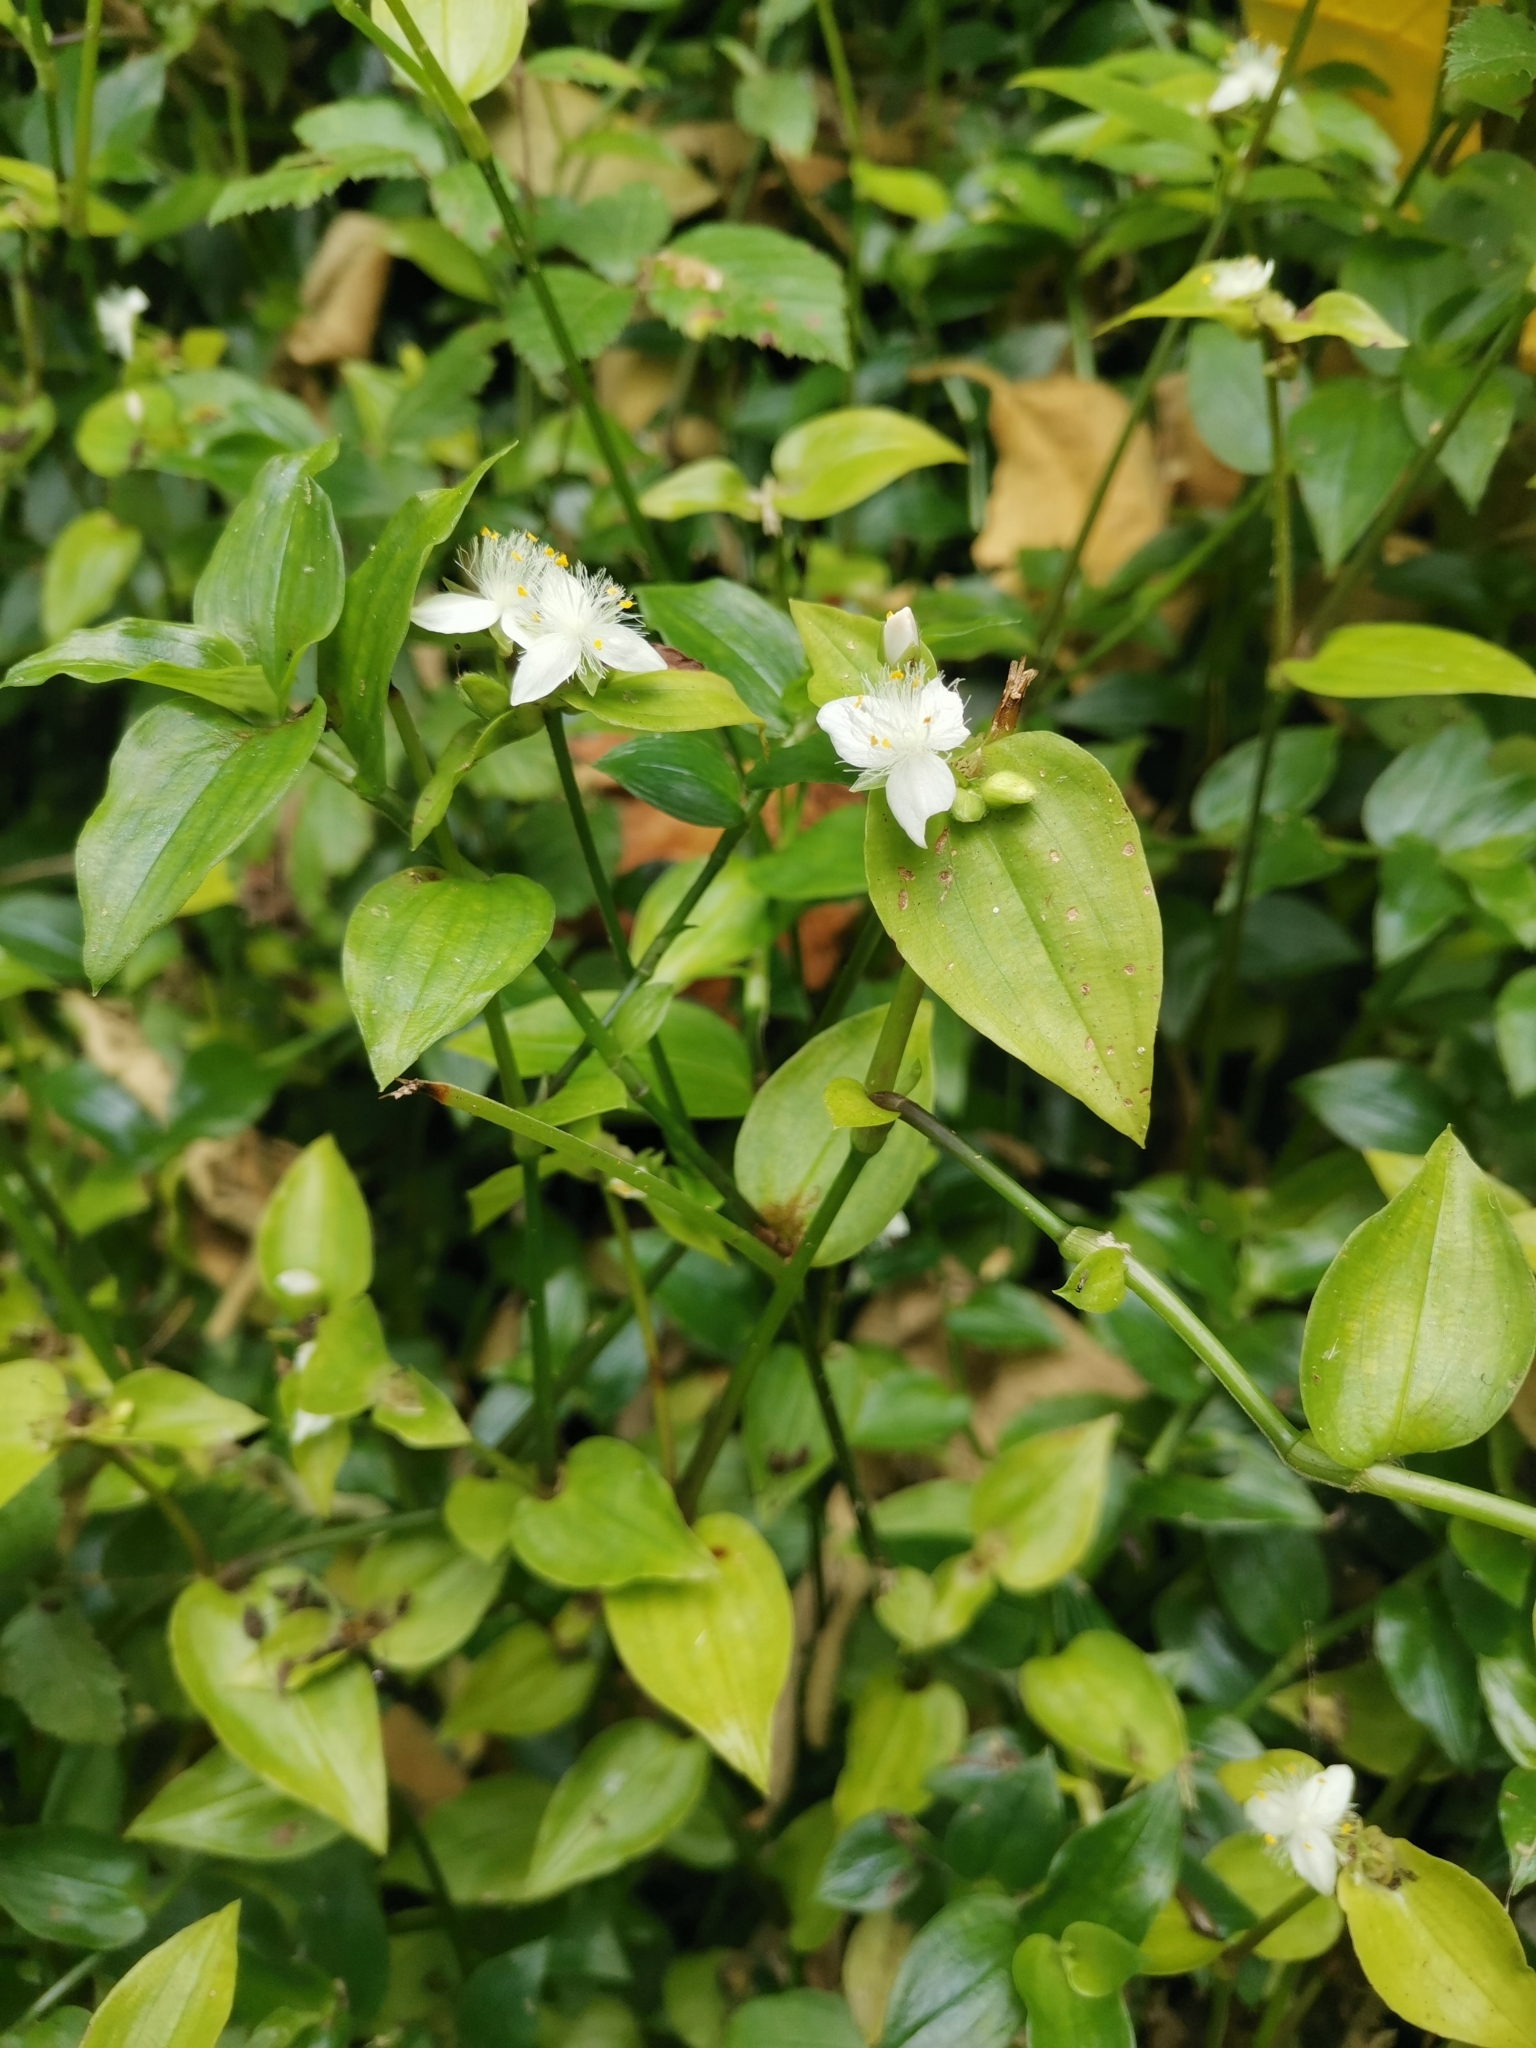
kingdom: Plantae
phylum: Tracheophyta
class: Liliopsida
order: Commelinales
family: Commelinaceae
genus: Tradescantia
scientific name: Tradescantia fluminensis
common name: Wandering-jew
